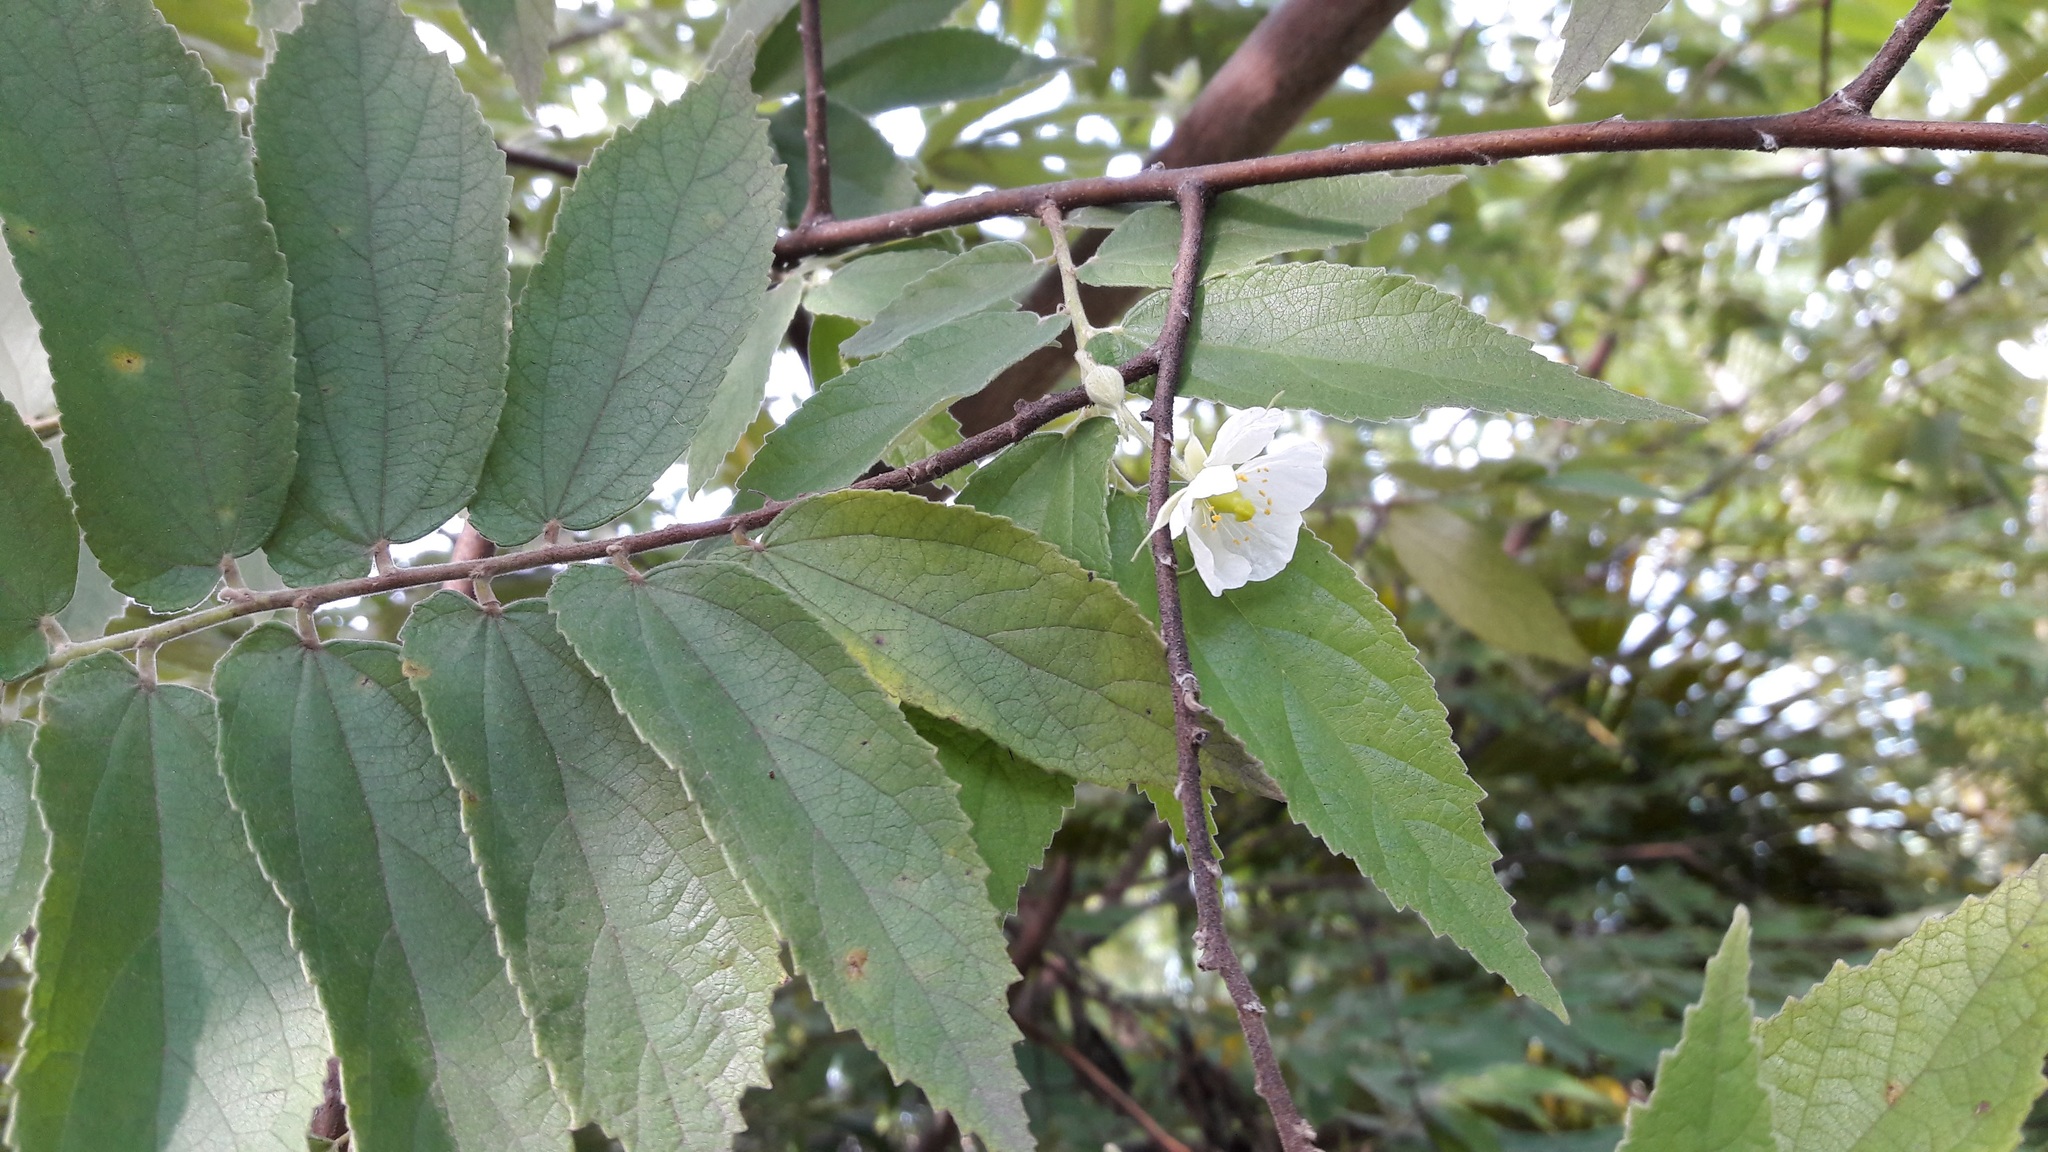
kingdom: Plantae
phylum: Tracheophyta
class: Magnoliopsida
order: Malvales
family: Muntingiaceae
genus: Muntingia
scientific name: Muntingia calabura
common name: Strawberrytree
